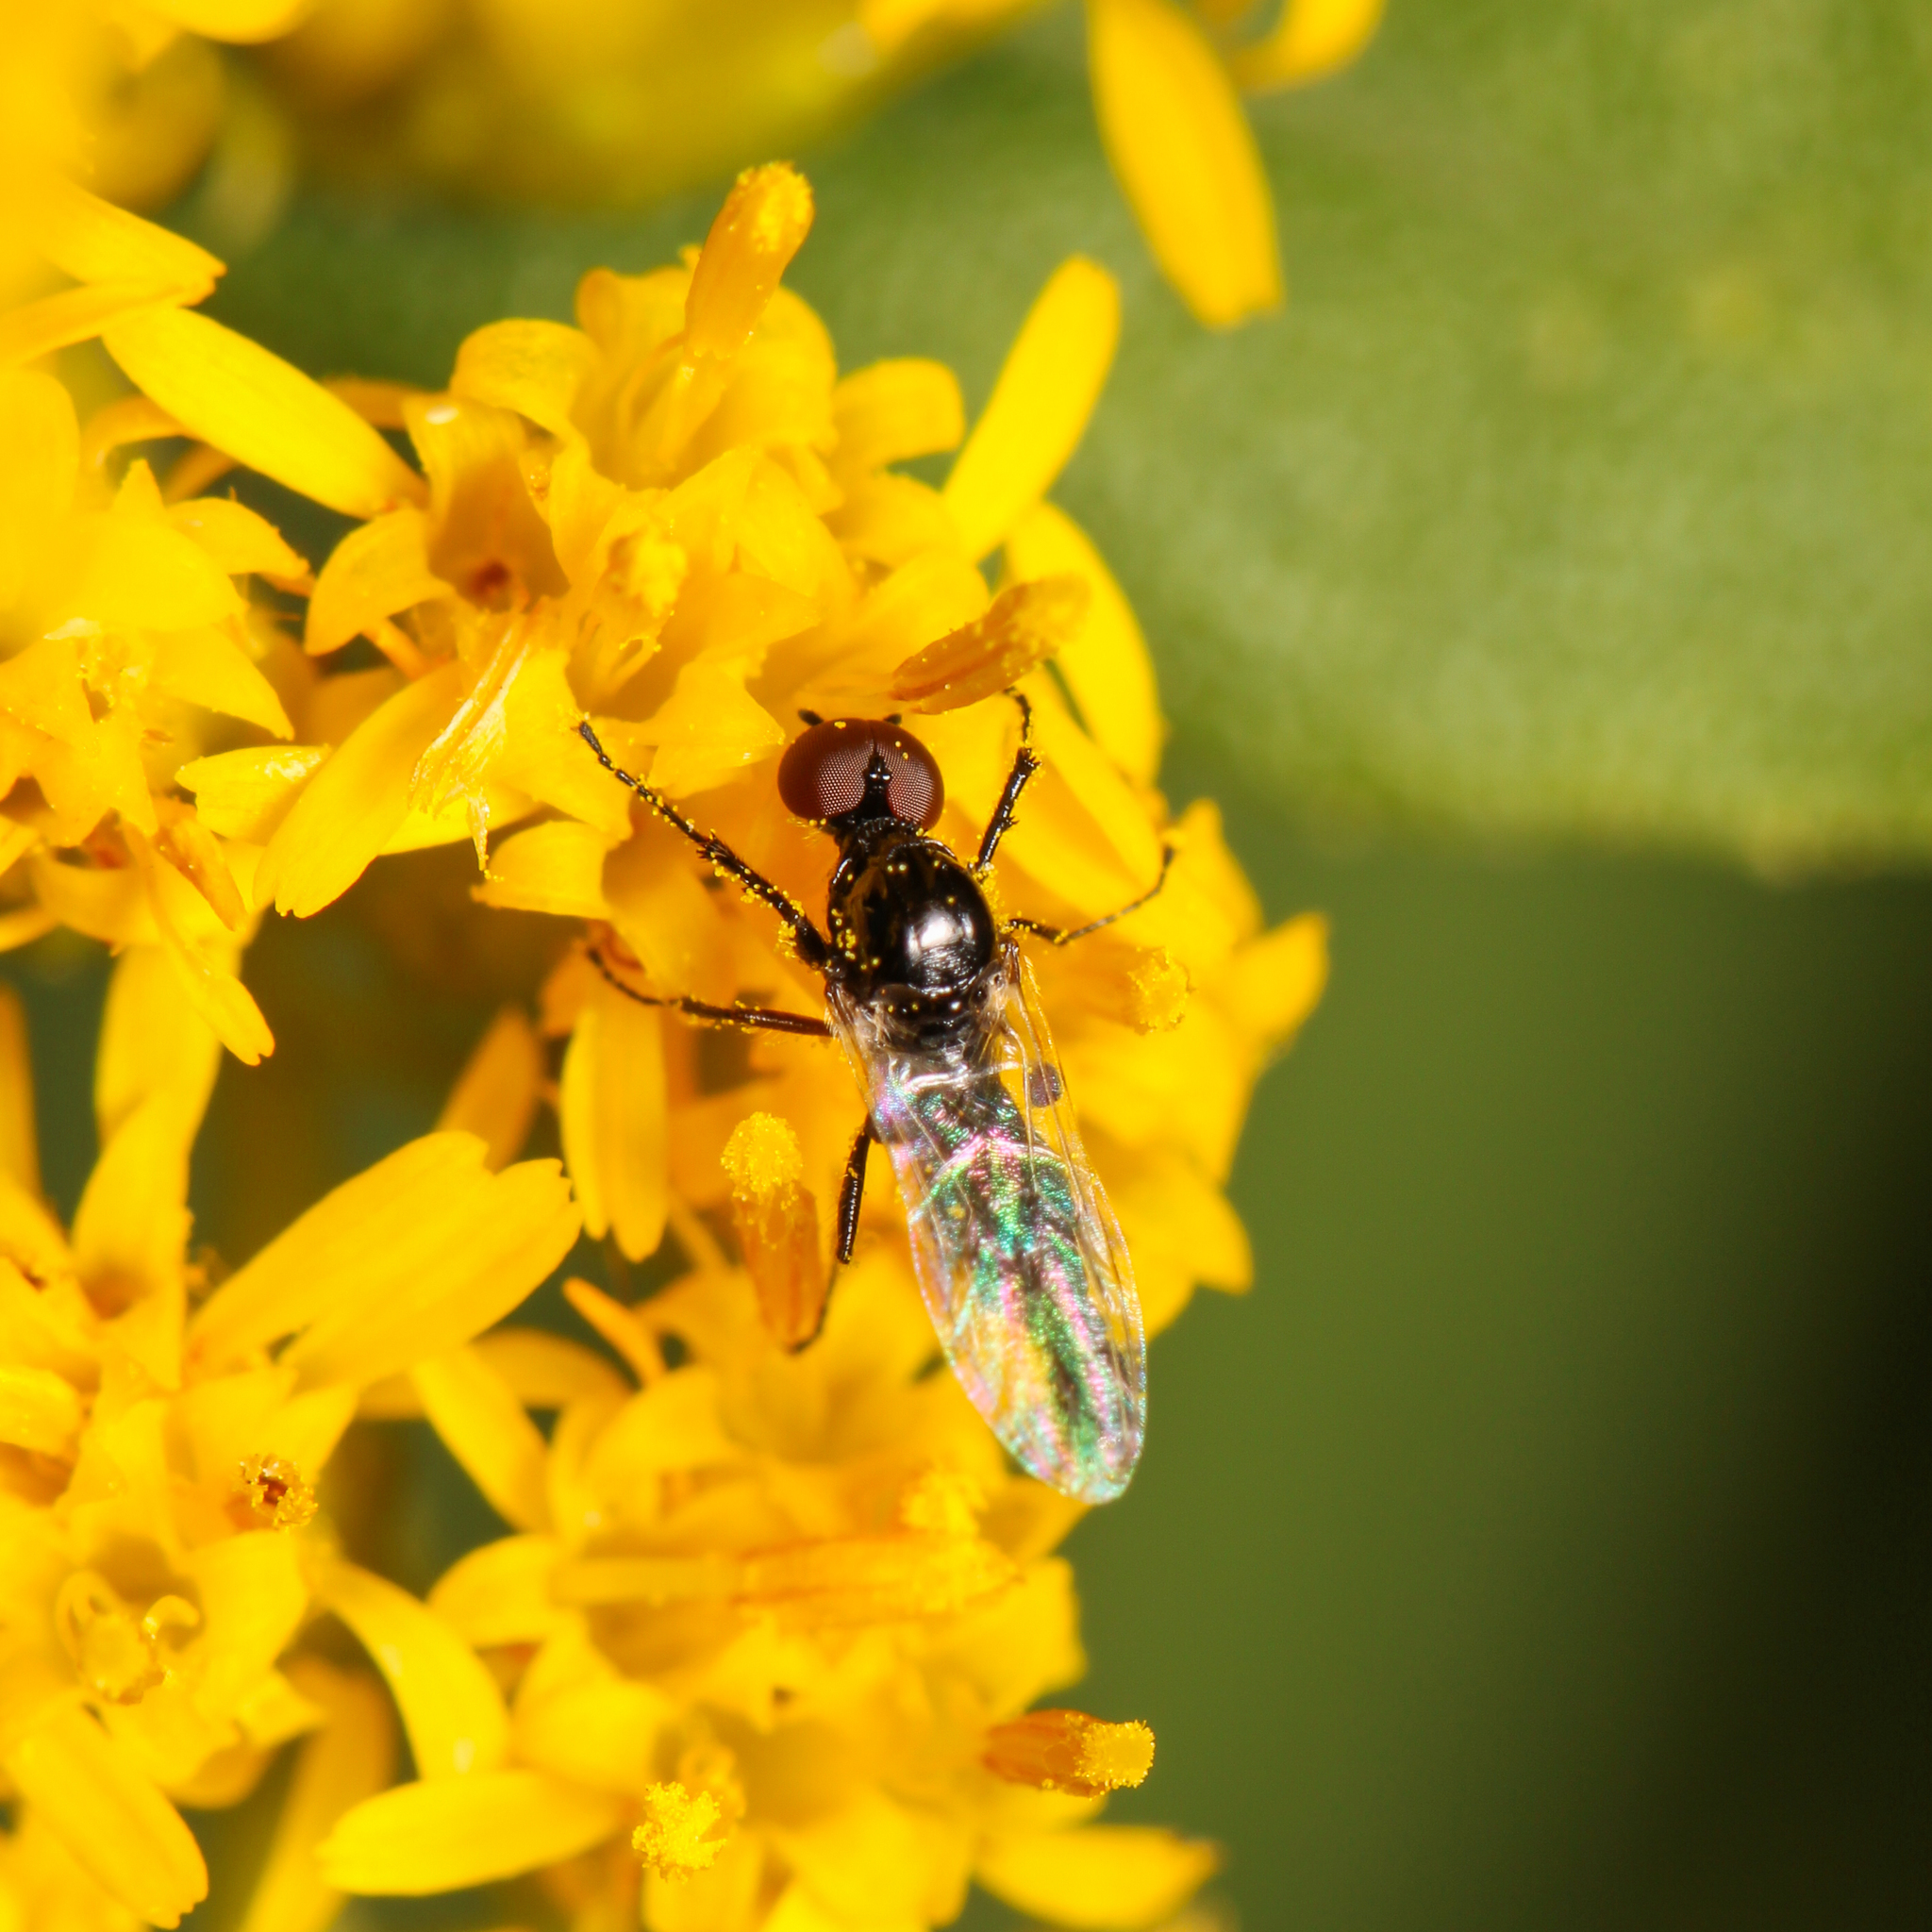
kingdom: Animalia
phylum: Arthropoda
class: Insecta
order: Diptera
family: Bibionidae
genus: Dilophus
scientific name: Dilophus
